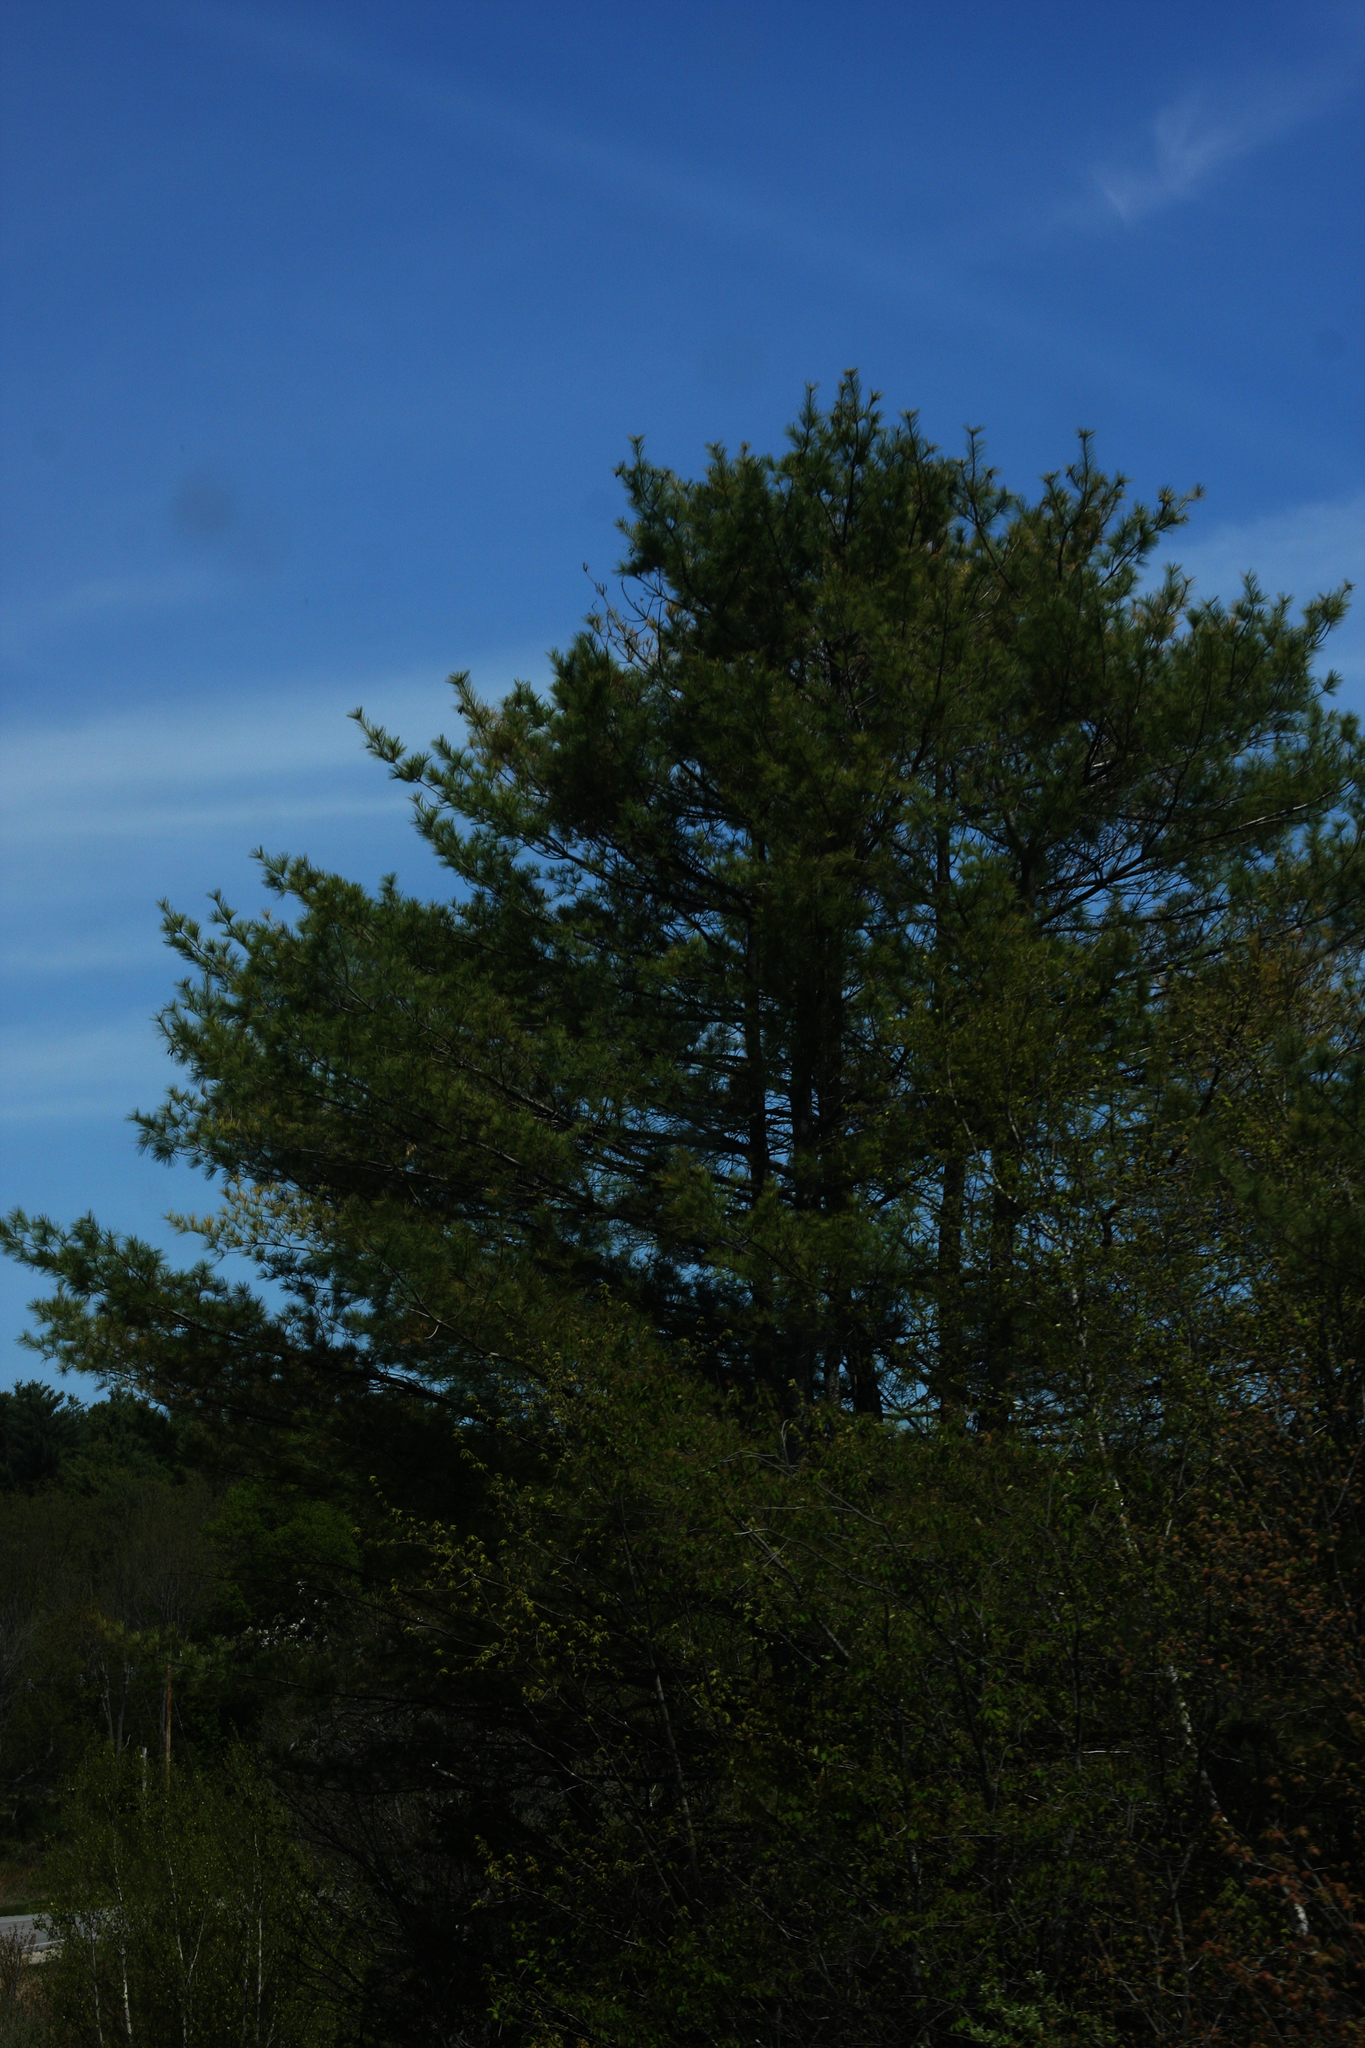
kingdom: Plantae
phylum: Tracheophyta
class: Pinopsida
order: Pinales
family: Pinaceae
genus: Pinus
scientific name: Pinus strobus
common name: Weymouth pine
